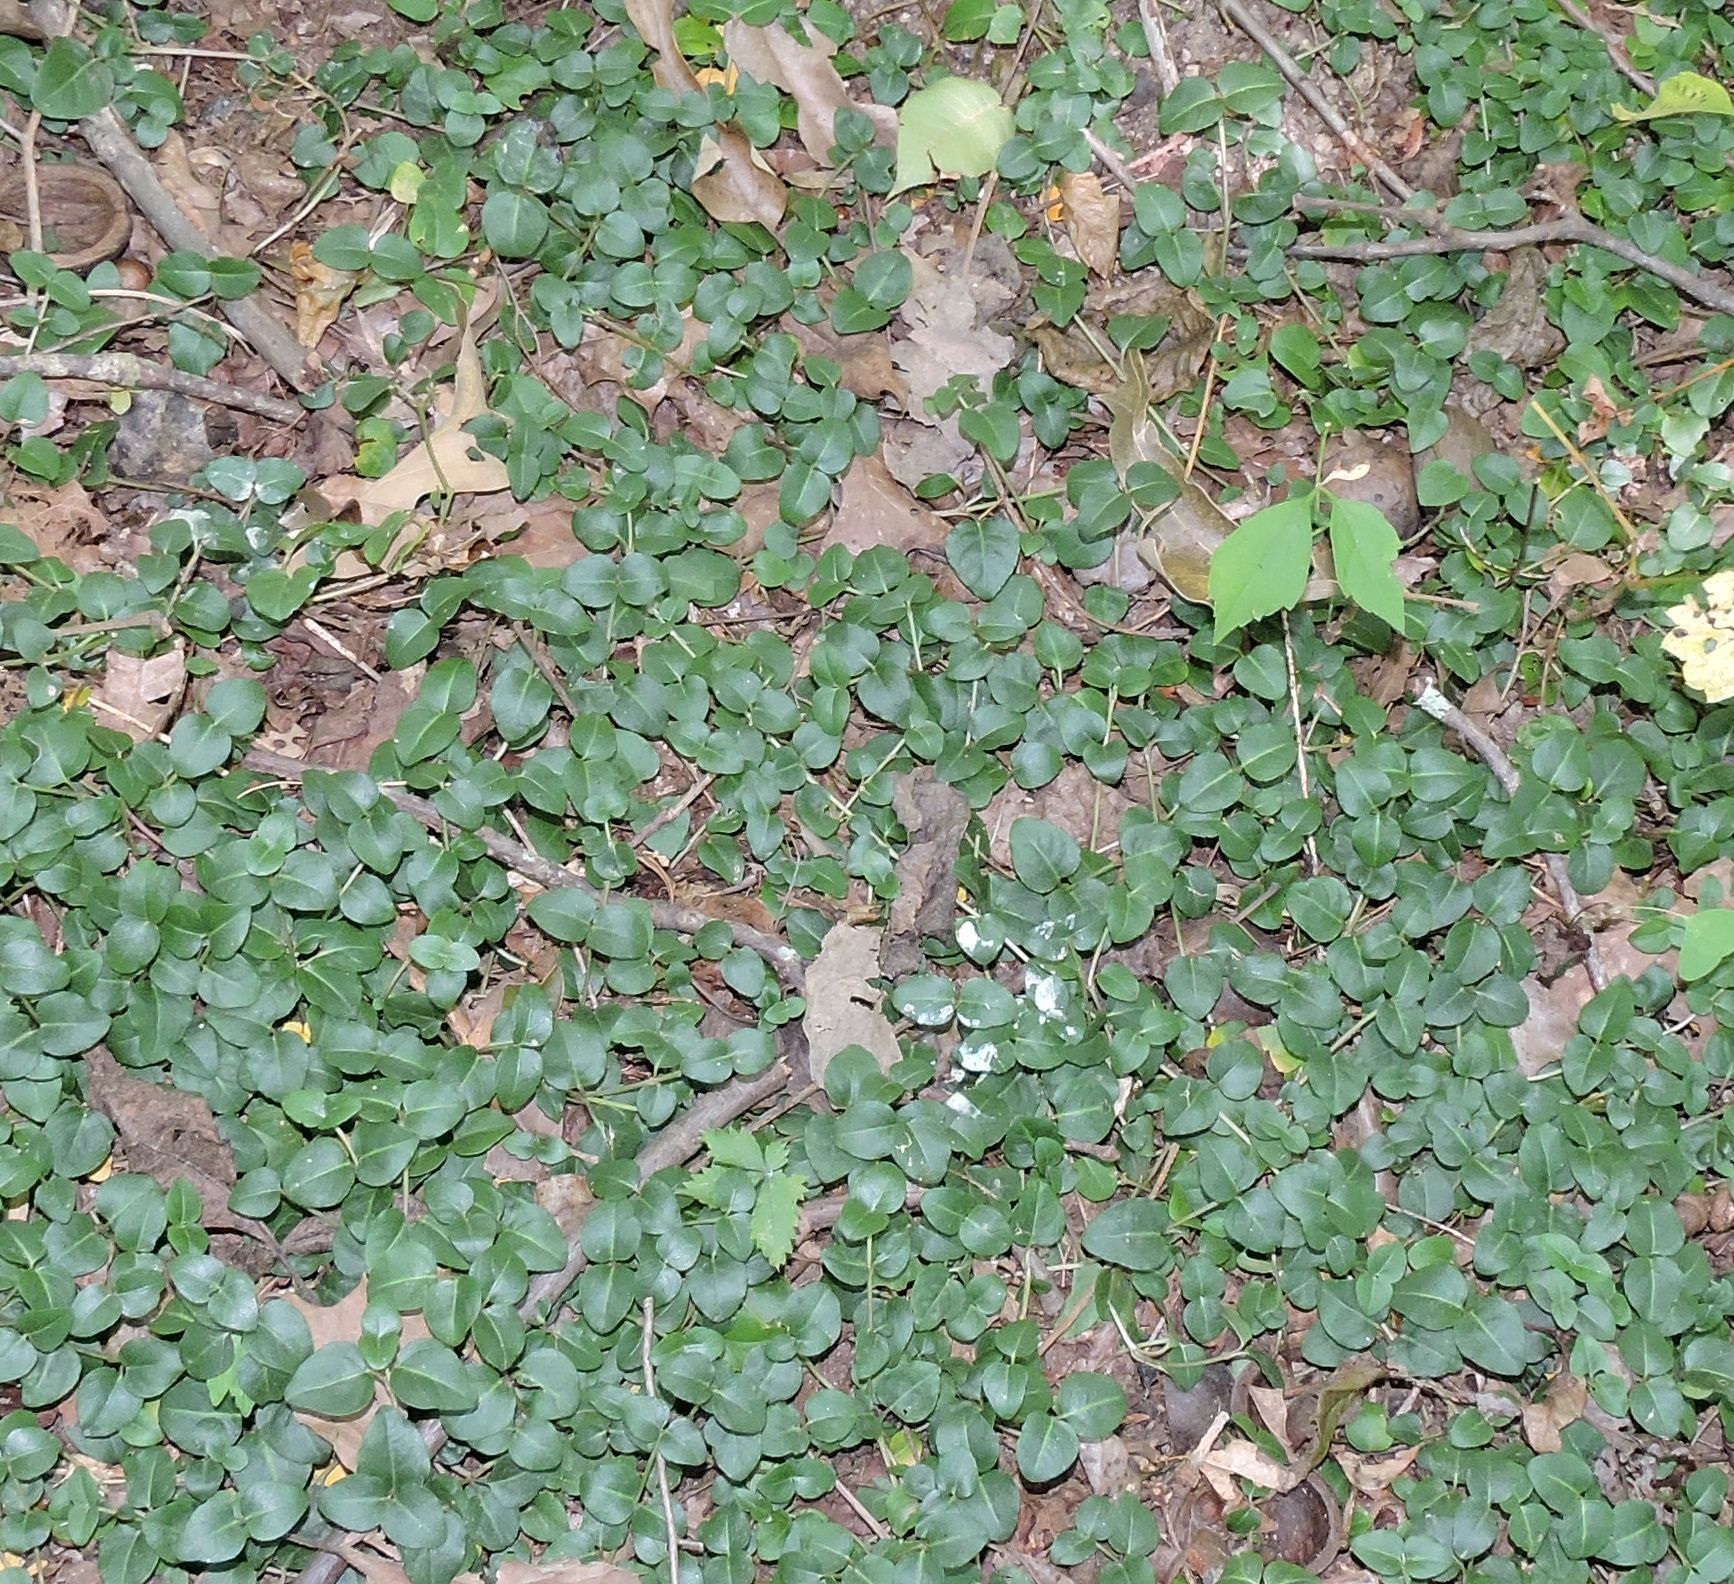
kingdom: Plantae
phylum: Tracheophyta
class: Magnoliopsida
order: Gentianales
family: Rubiaceae
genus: Mitchella
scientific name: Mitchella repens
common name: Partridge-berry
